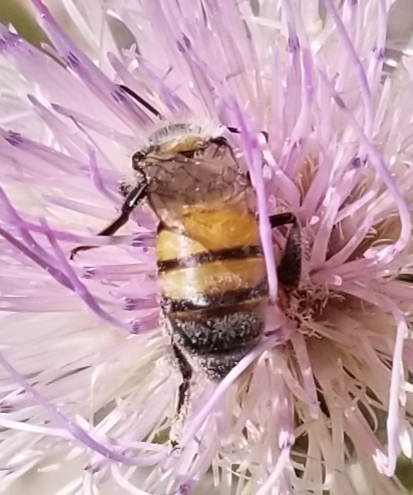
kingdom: Animalia
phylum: Arthropoda
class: Insecta
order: Hymenoptera
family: Apidae
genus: Apis
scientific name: Apis mellifera
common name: Honey bee
